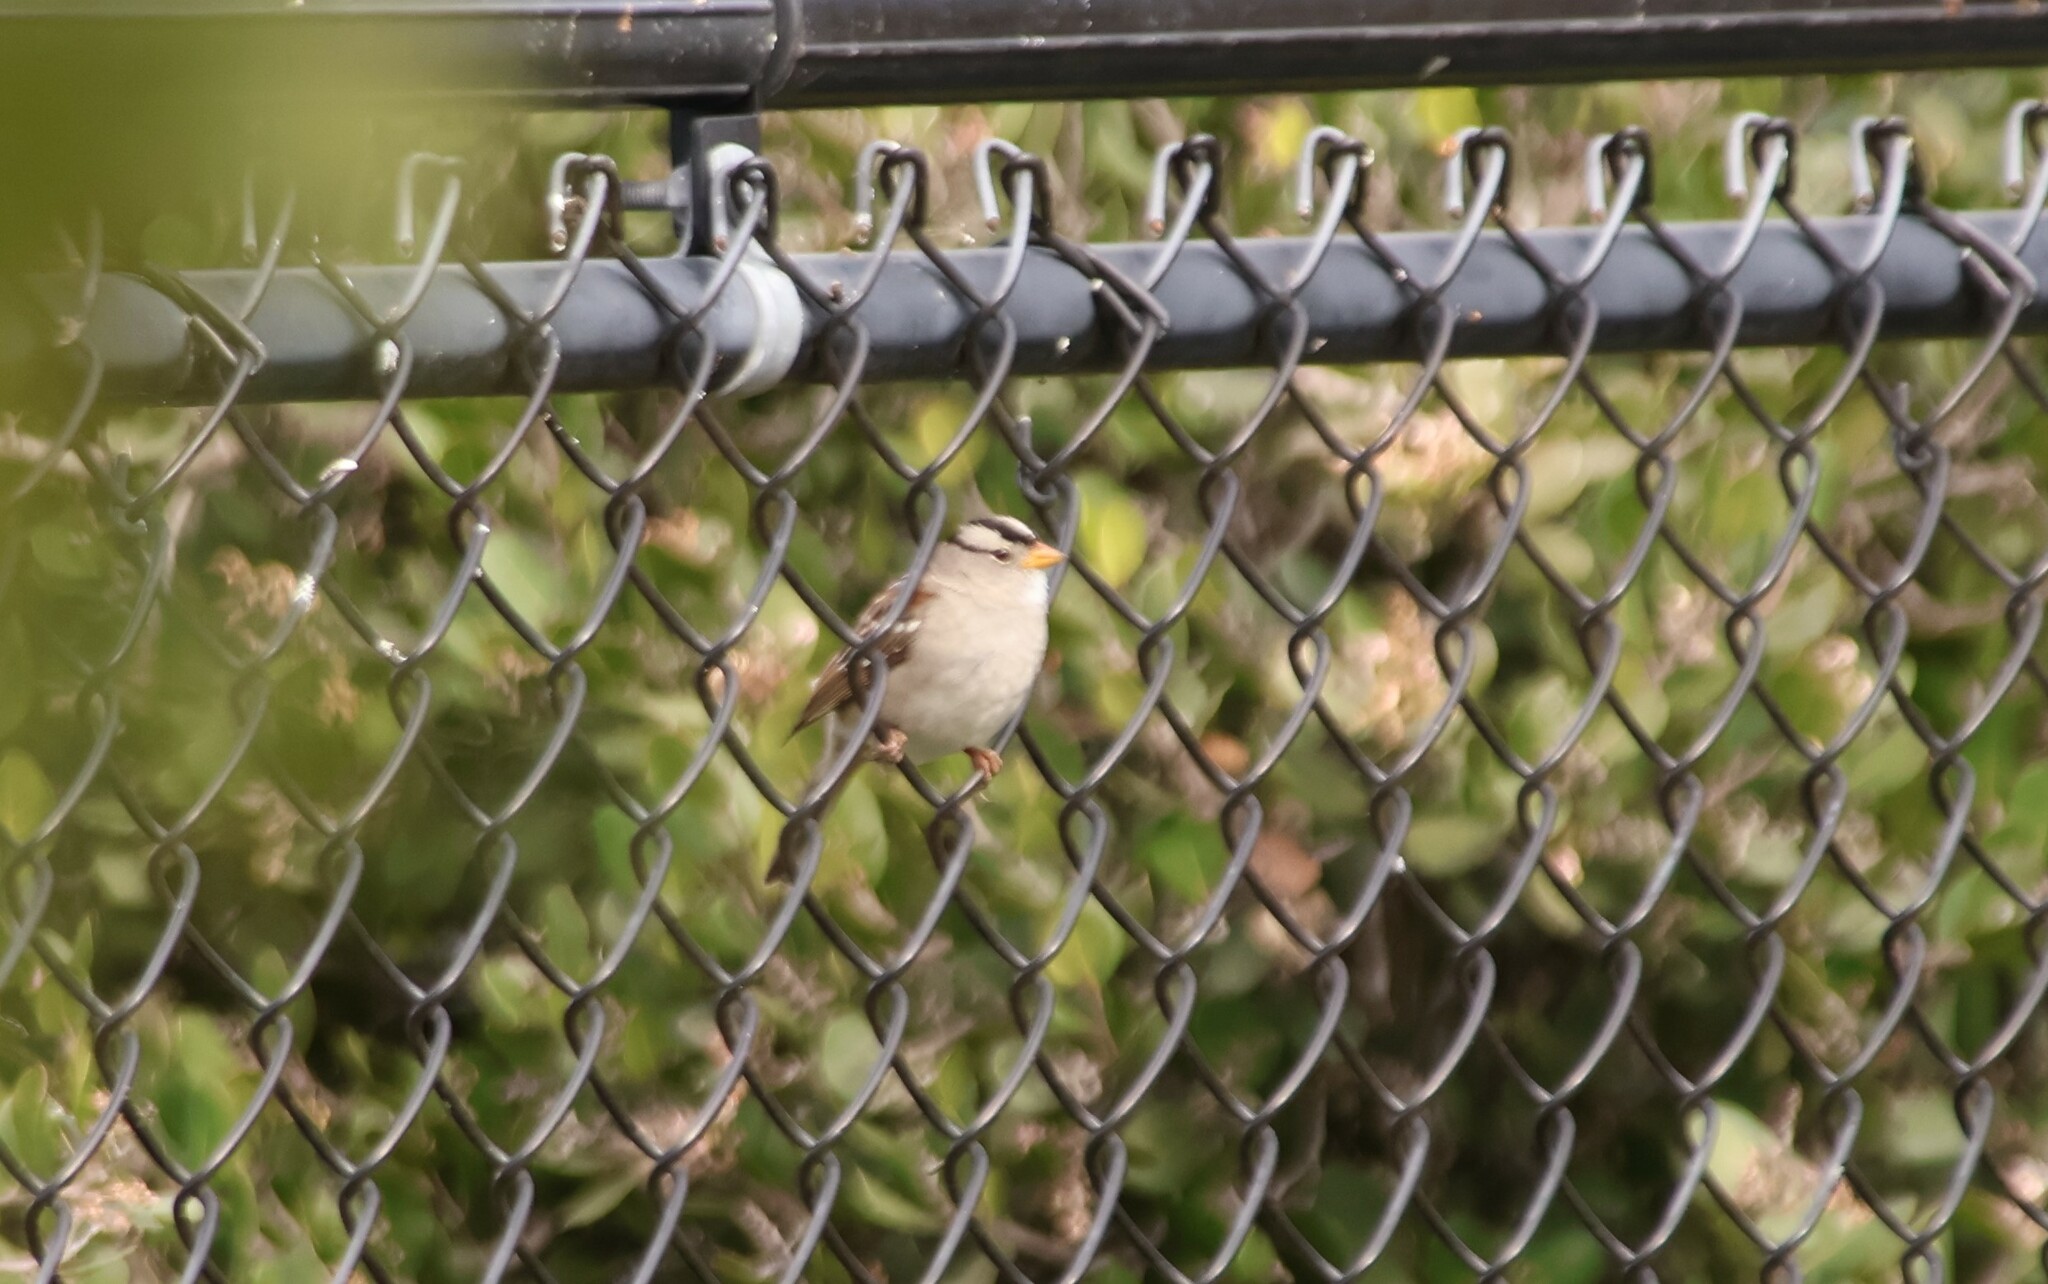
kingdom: Animalia
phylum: Chordata
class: Aves
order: Passeriformes
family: Passerellidae
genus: Zonotrichia
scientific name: Zonotrichia leucophrys
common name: White-crowned sparrow
